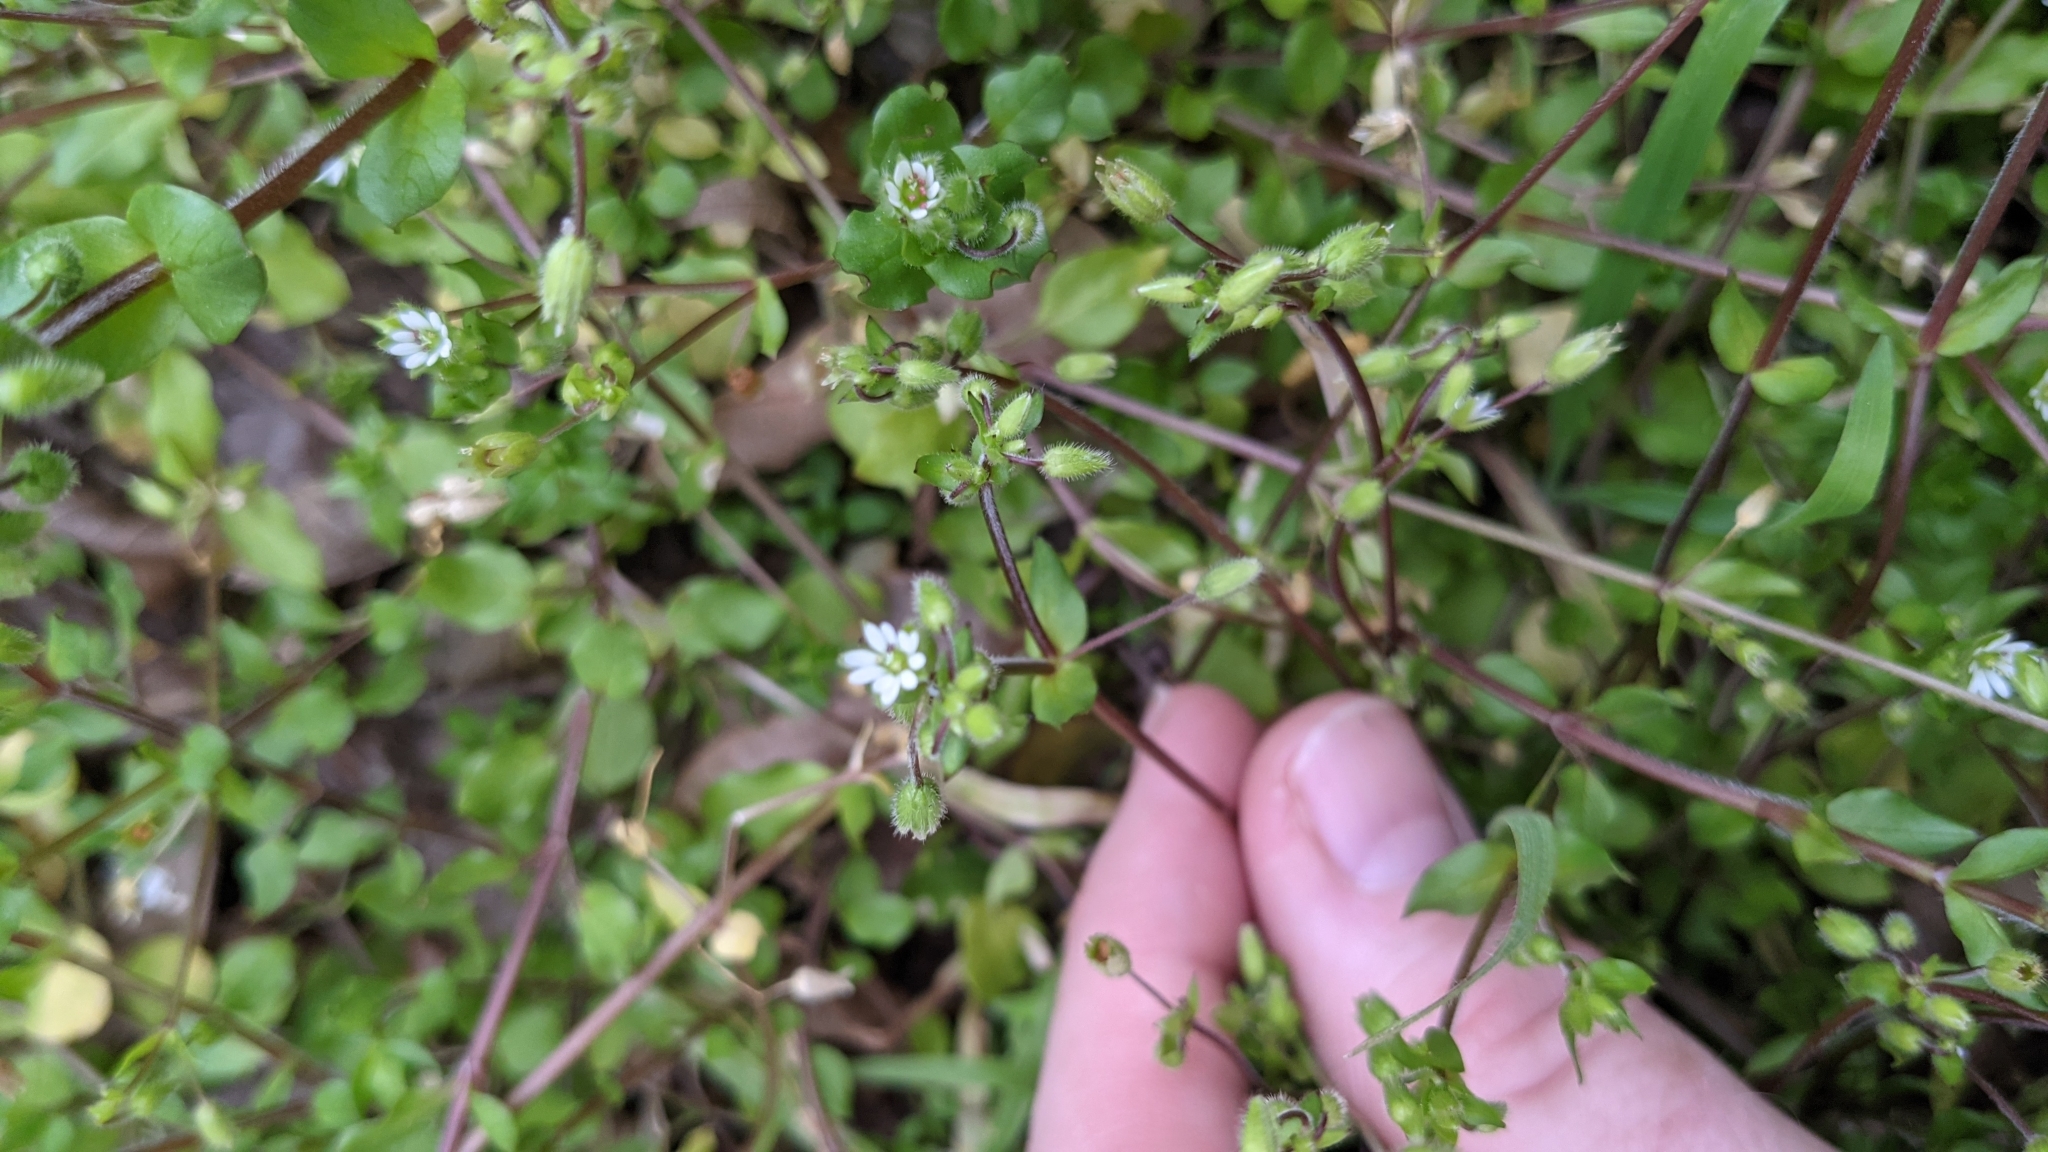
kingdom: Plantae
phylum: Tracheophyta
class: Magnoliopsida
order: Caryophyllales
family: Caryophyllaceae
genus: Stellaria
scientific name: Stellaria media
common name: Common chickweed
